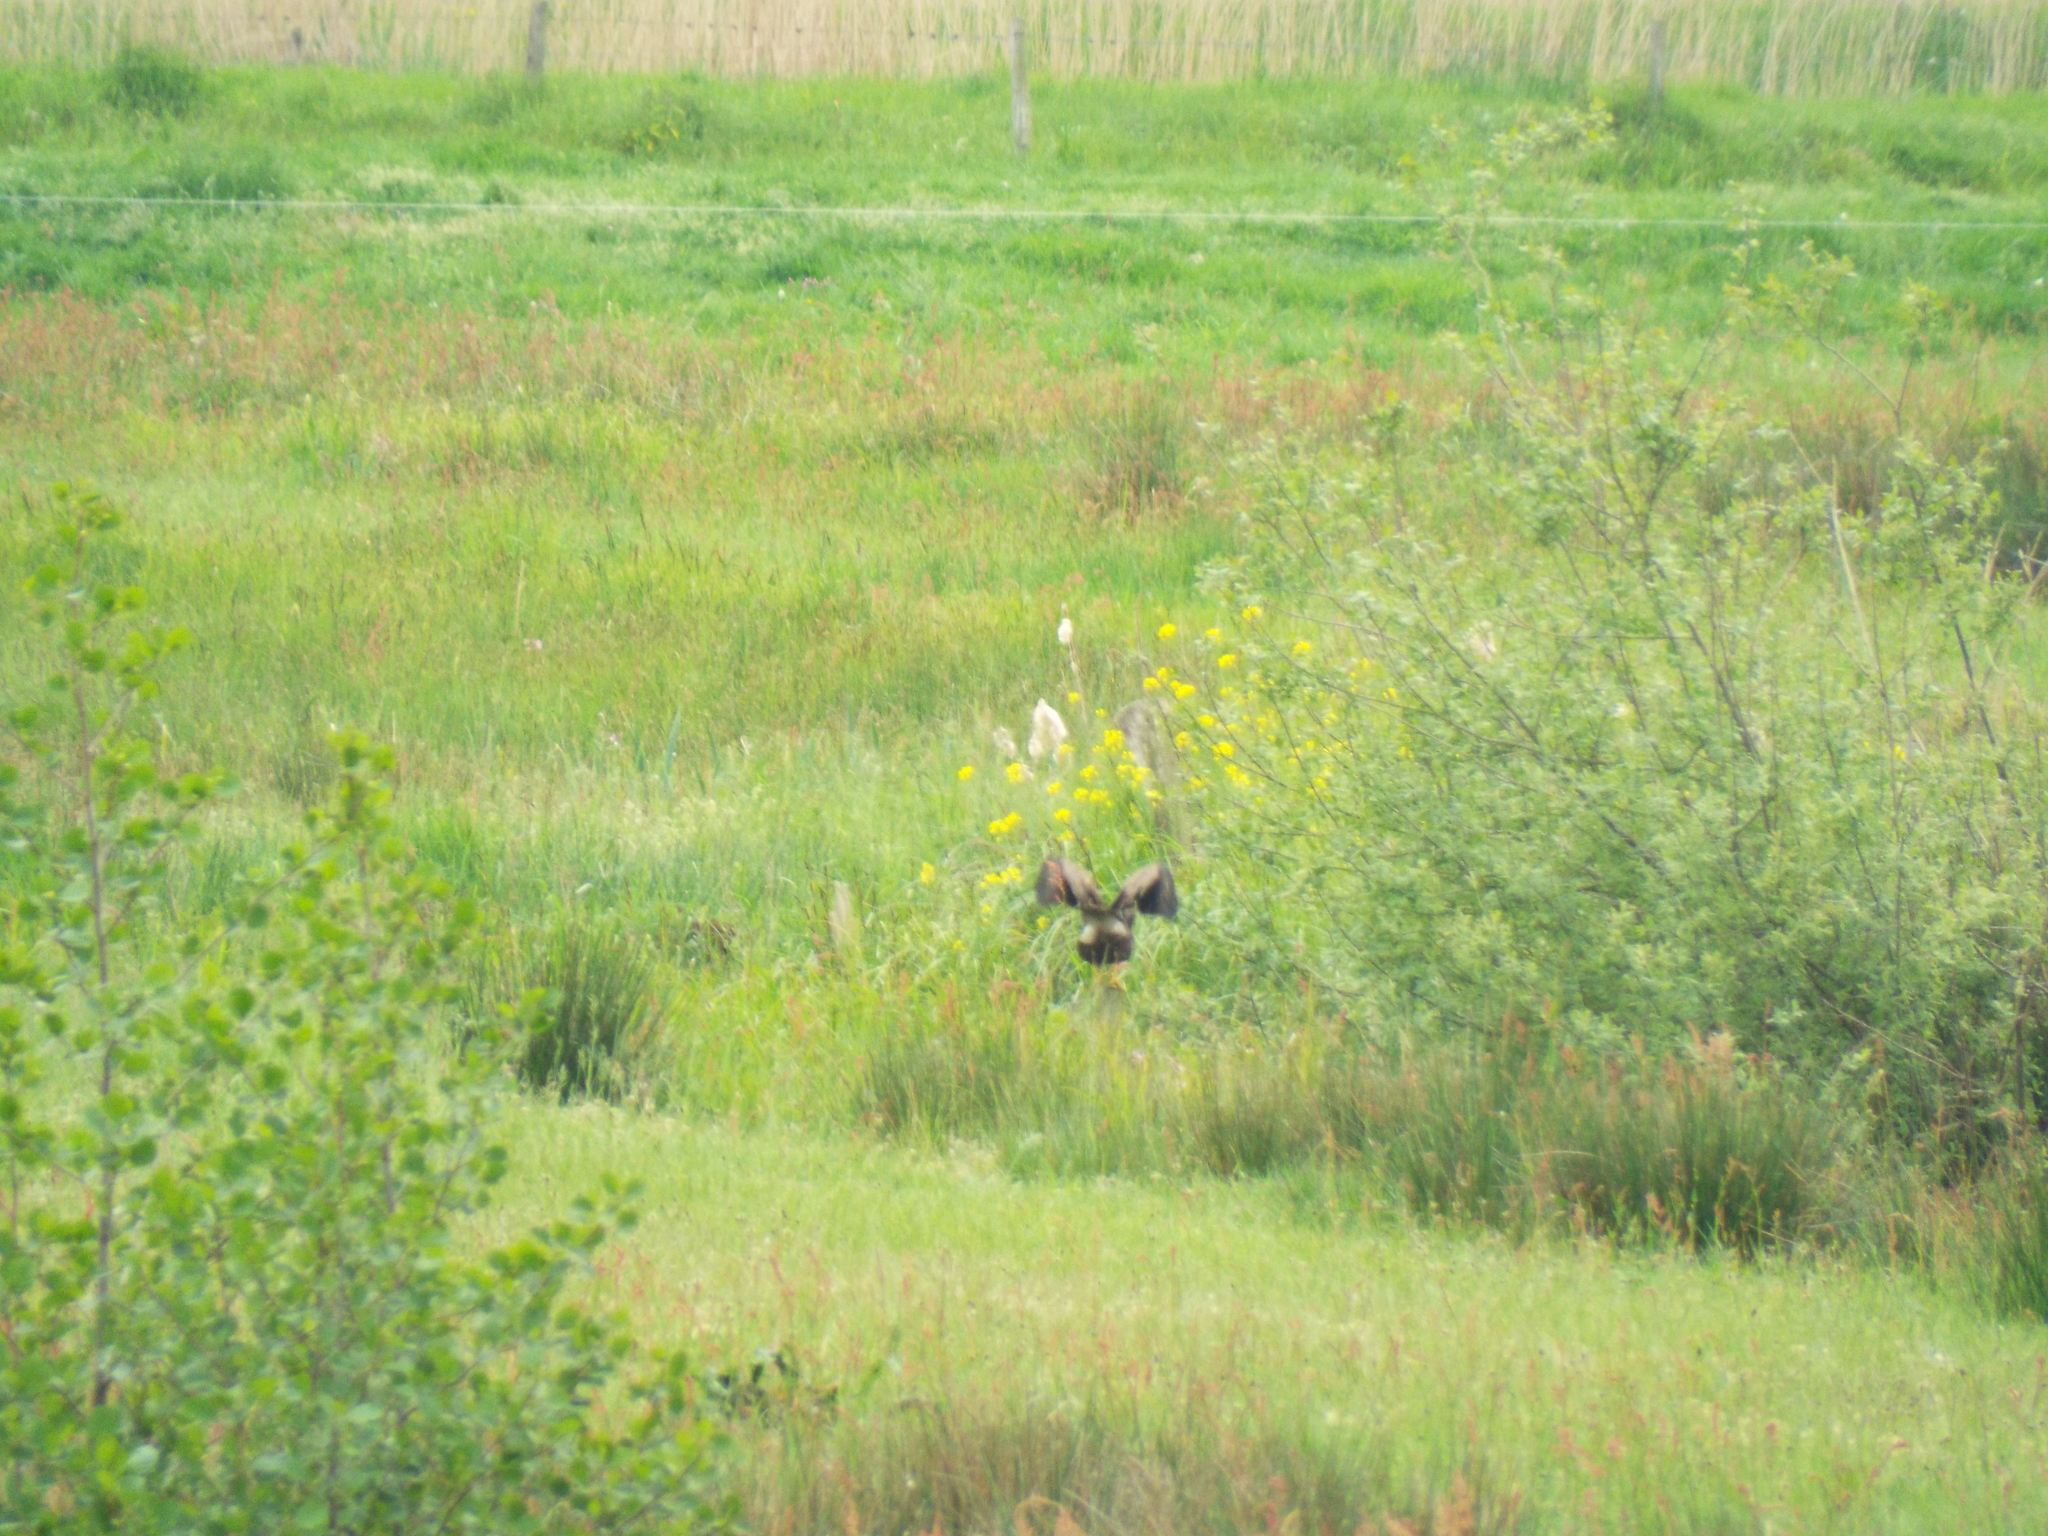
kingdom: Animalia
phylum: Chordata
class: Aves
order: Accipitriformes
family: Accipitridae
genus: Buteo
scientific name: Buteo buteo
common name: Common buzzard
